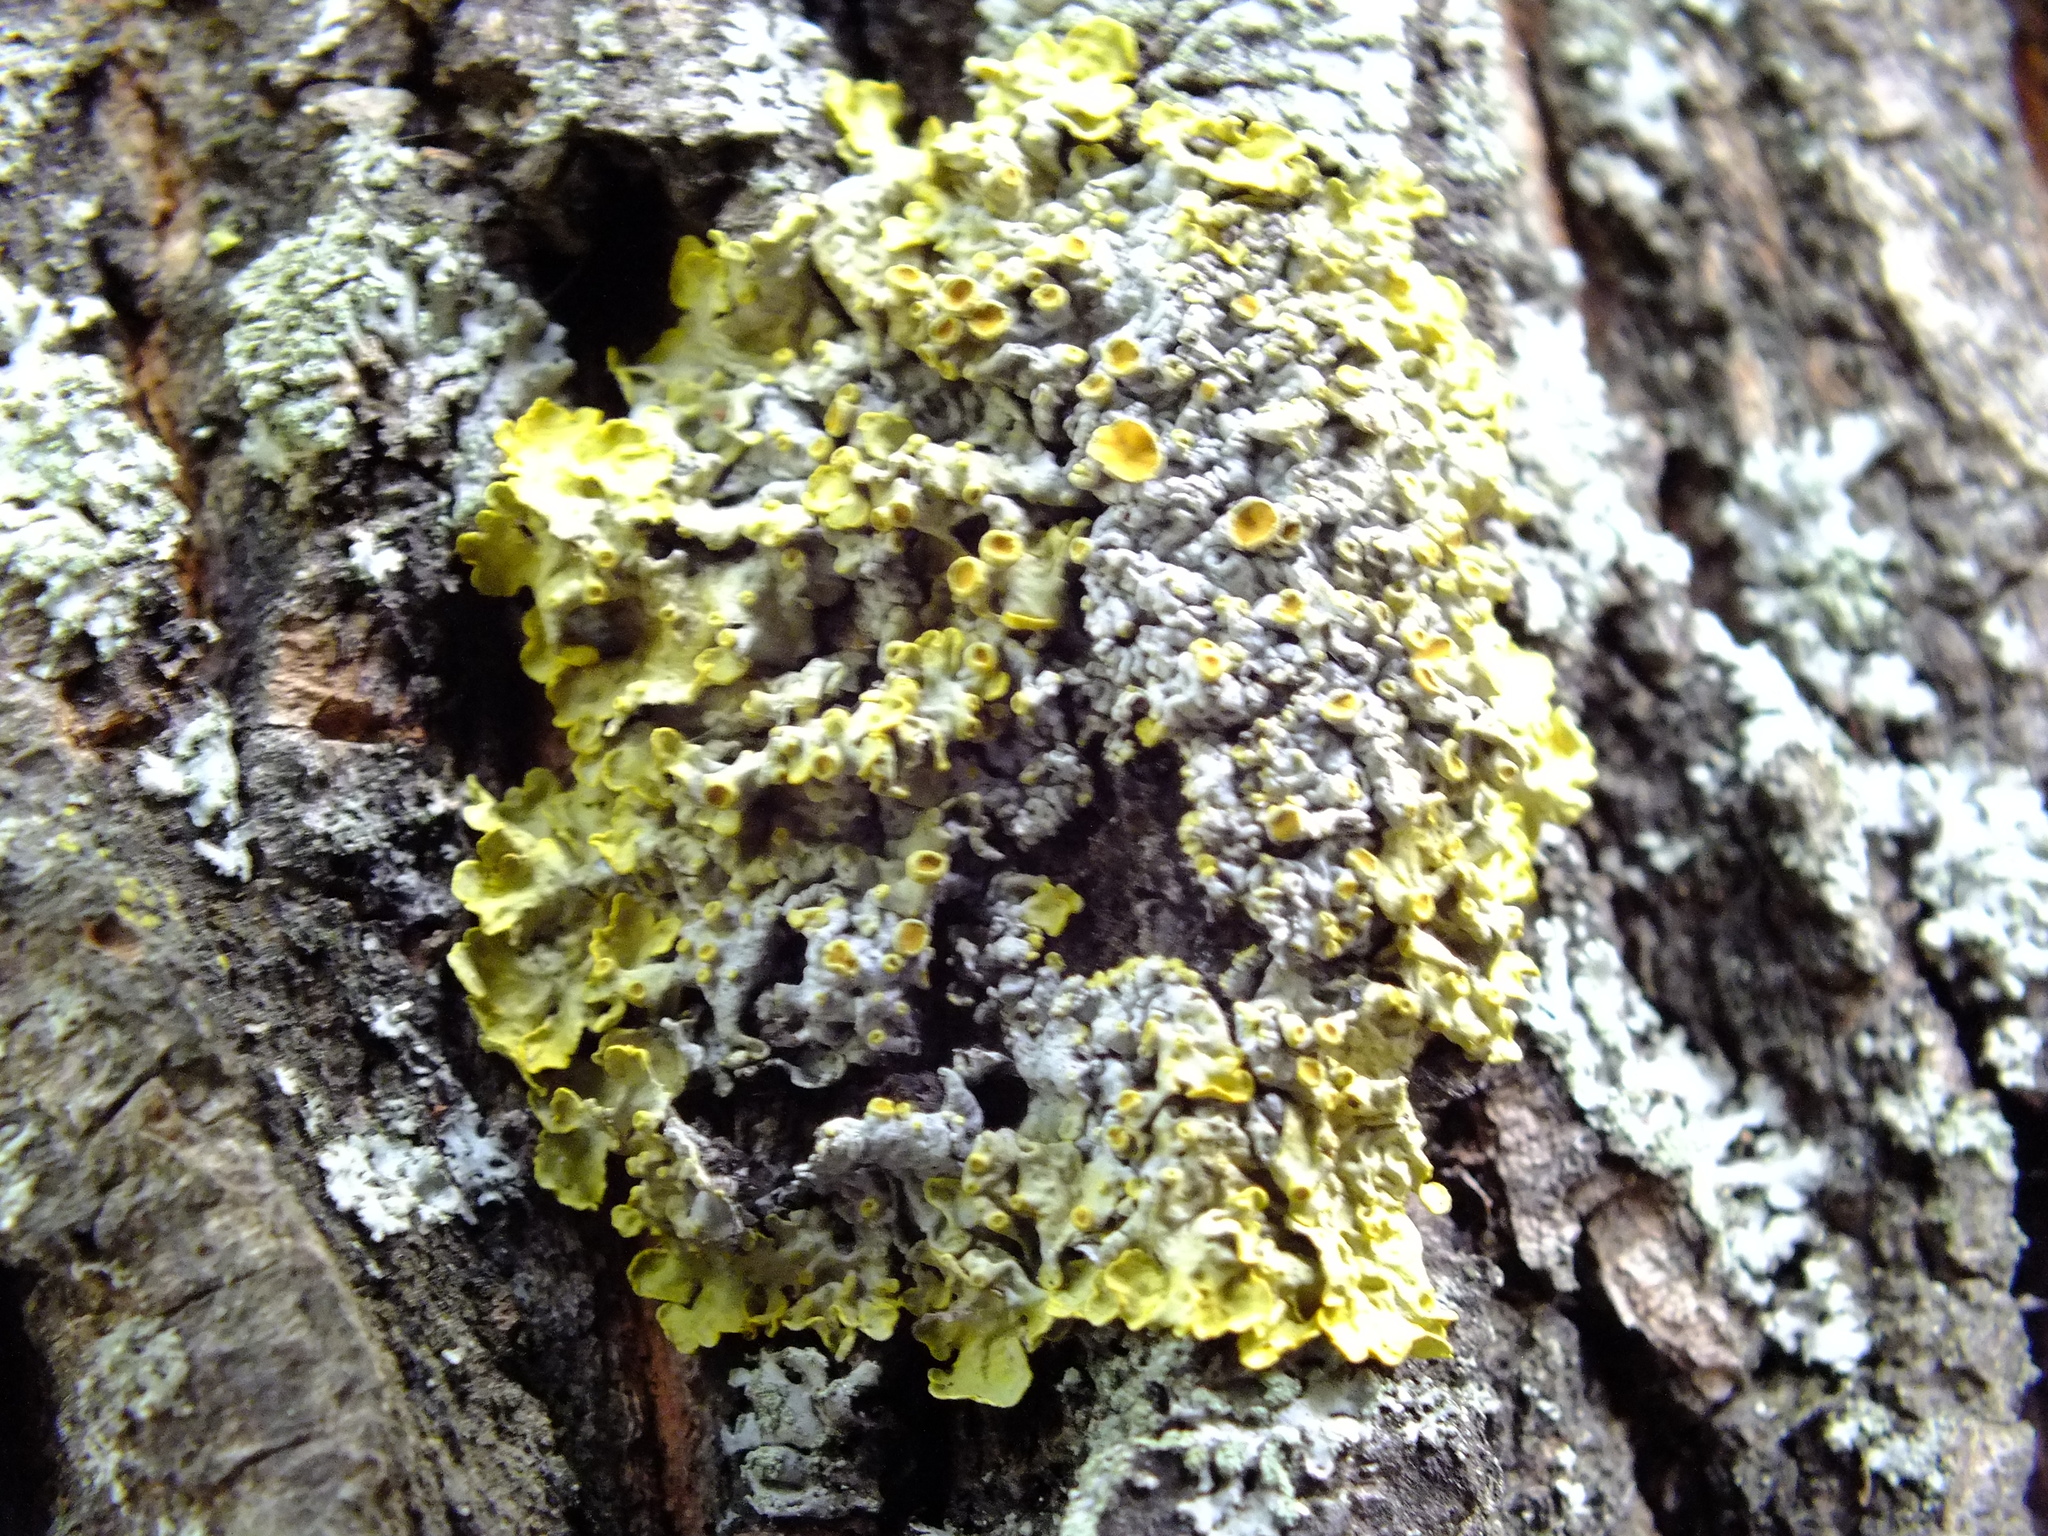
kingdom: Fungi
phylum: Ascomycota
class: Lecanoromycetes
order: Teloschistales
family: Teloschistaceae
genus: Xanthoria
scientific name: Xanthoria parietina
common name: Common orange lichen
